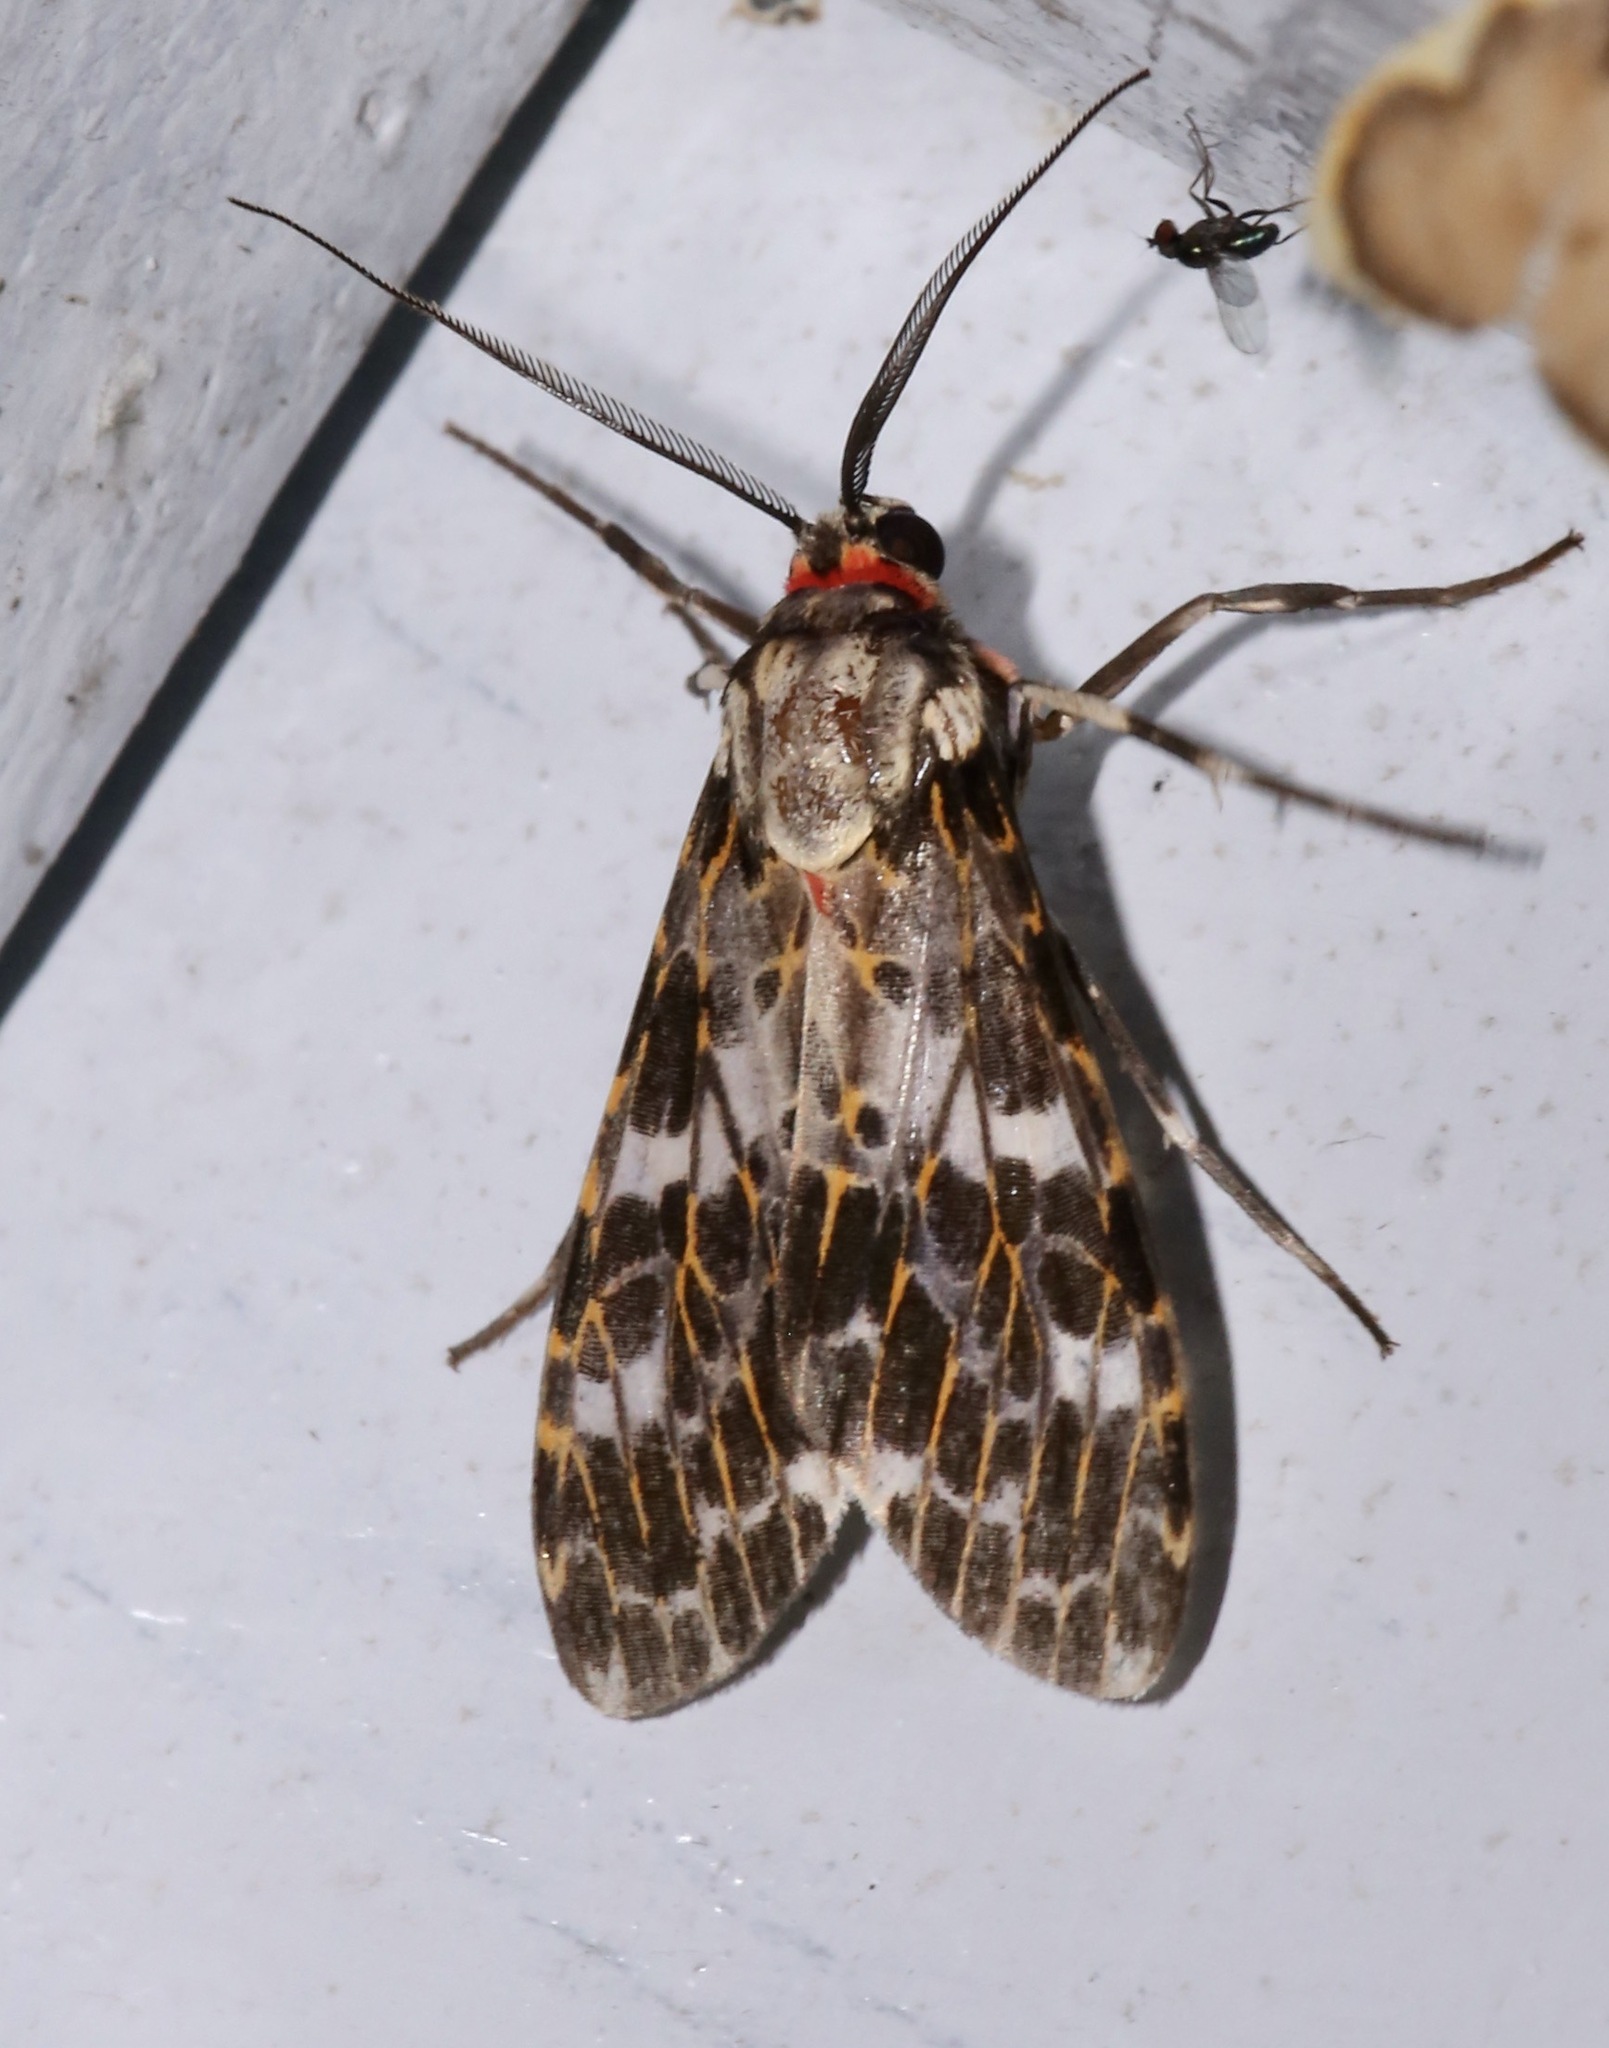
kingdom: Animalia
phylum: Arthropoda
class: Insecta
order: Lepidoptera
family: Erebidae
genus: Eucereon
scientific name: Eucereon tarona
